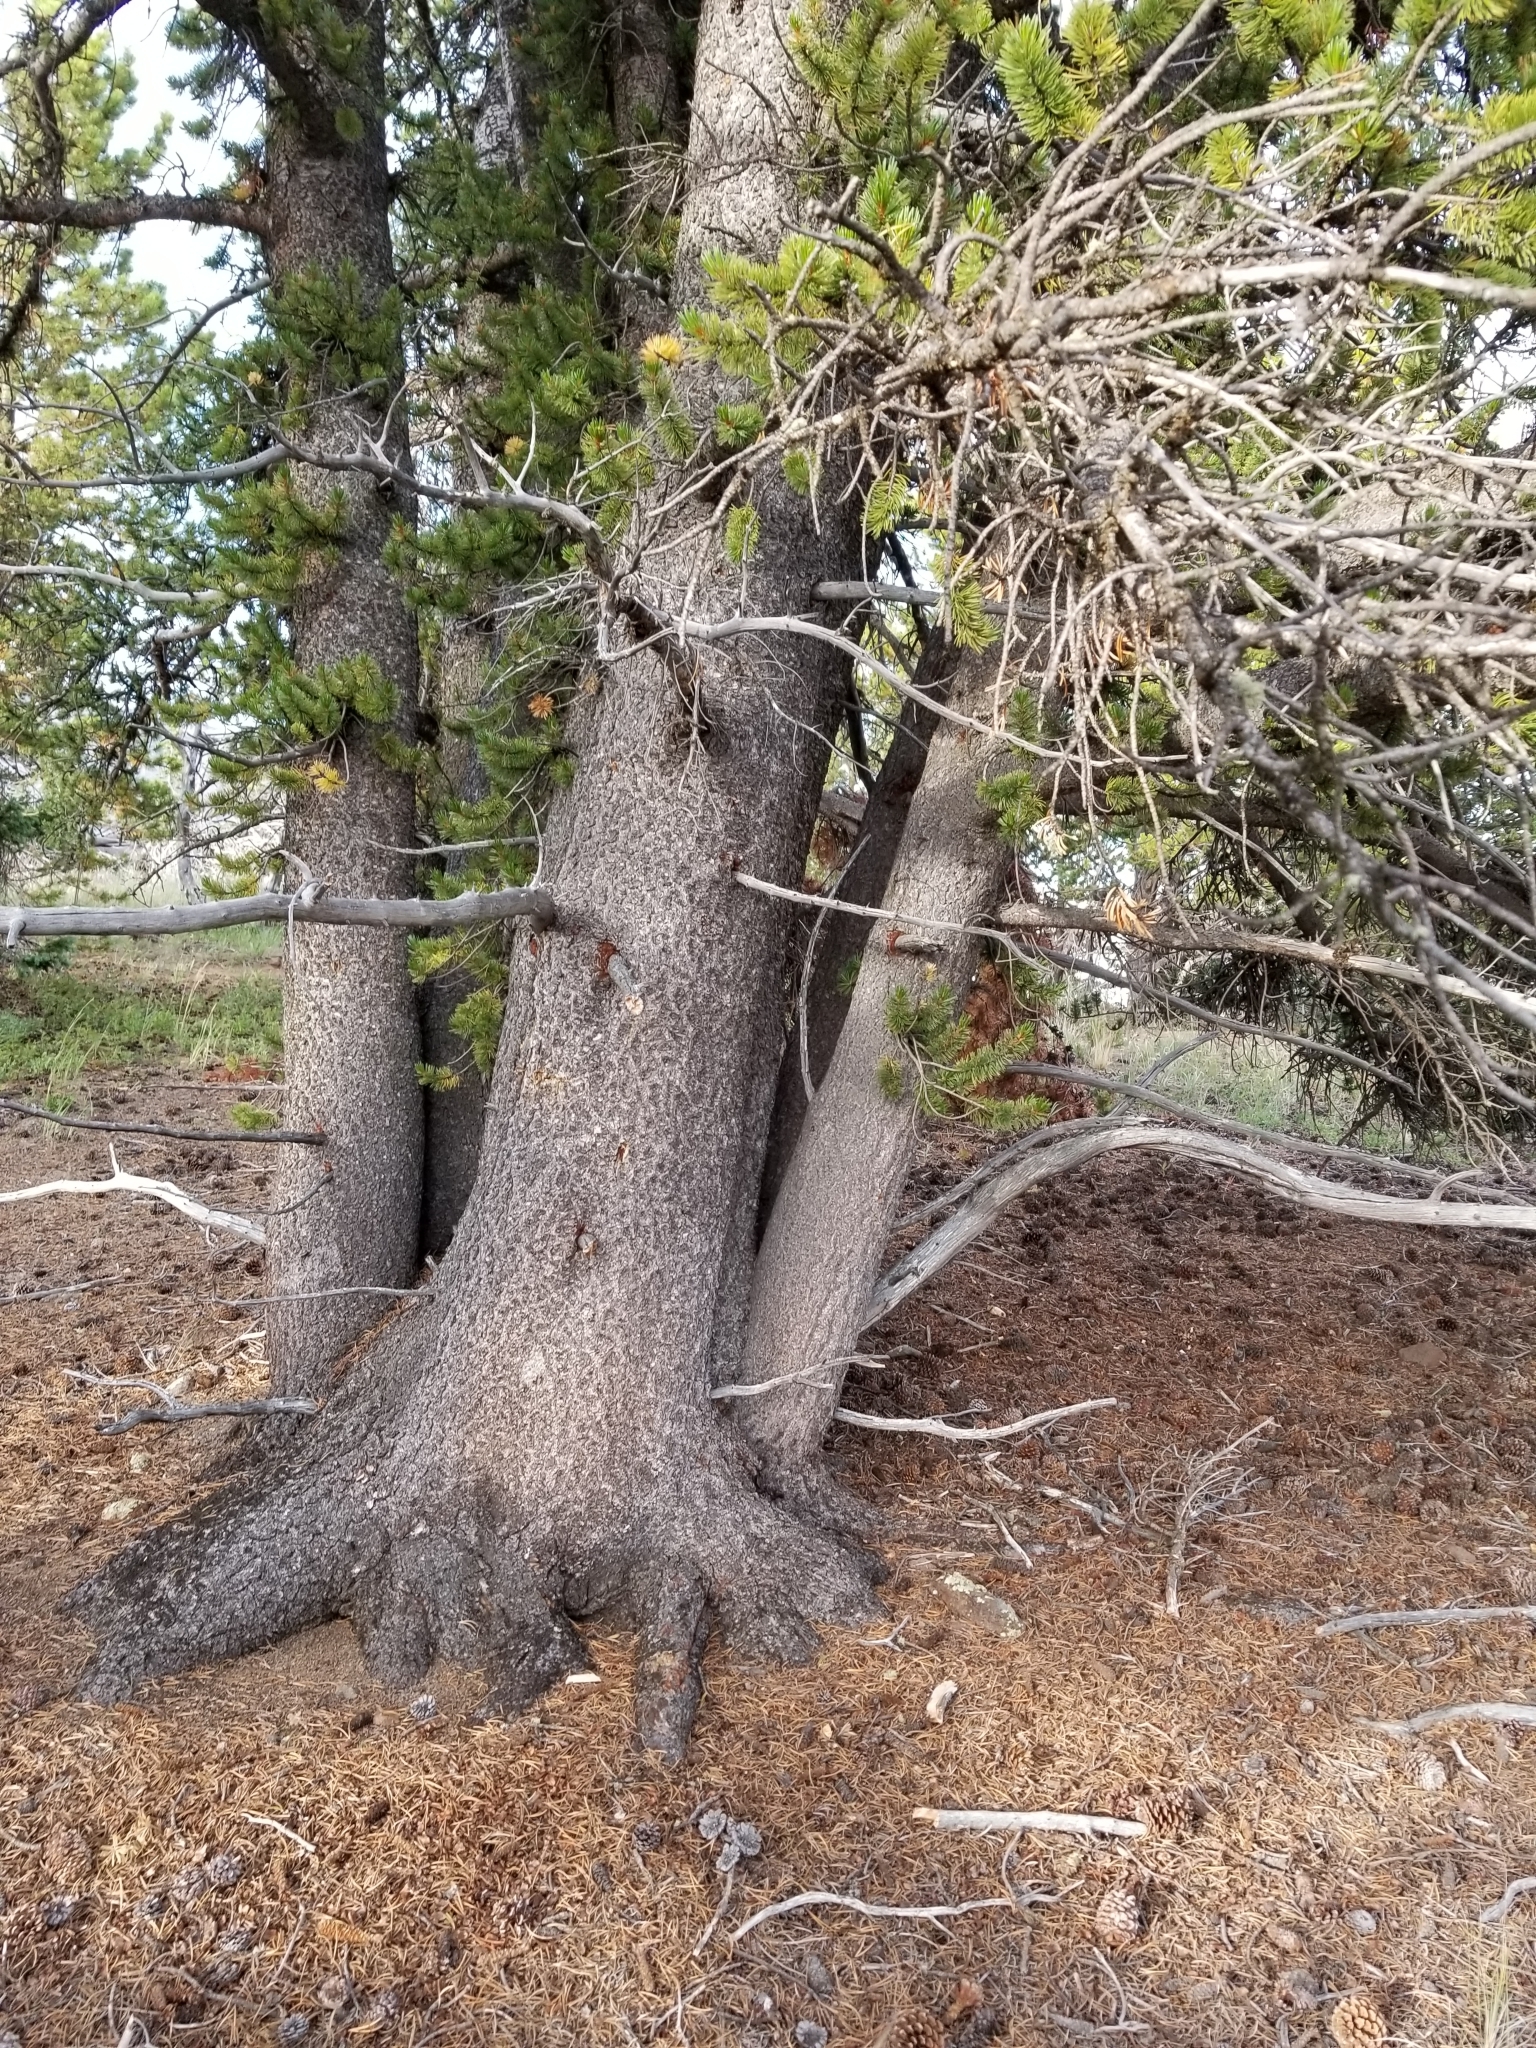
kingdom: Plantae
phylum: Tracheophyta
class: Pinopsida
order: Pinales
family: Pinaceae
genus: Pinus
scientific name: Pinus aristata
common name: Colorado bristlecone pine
